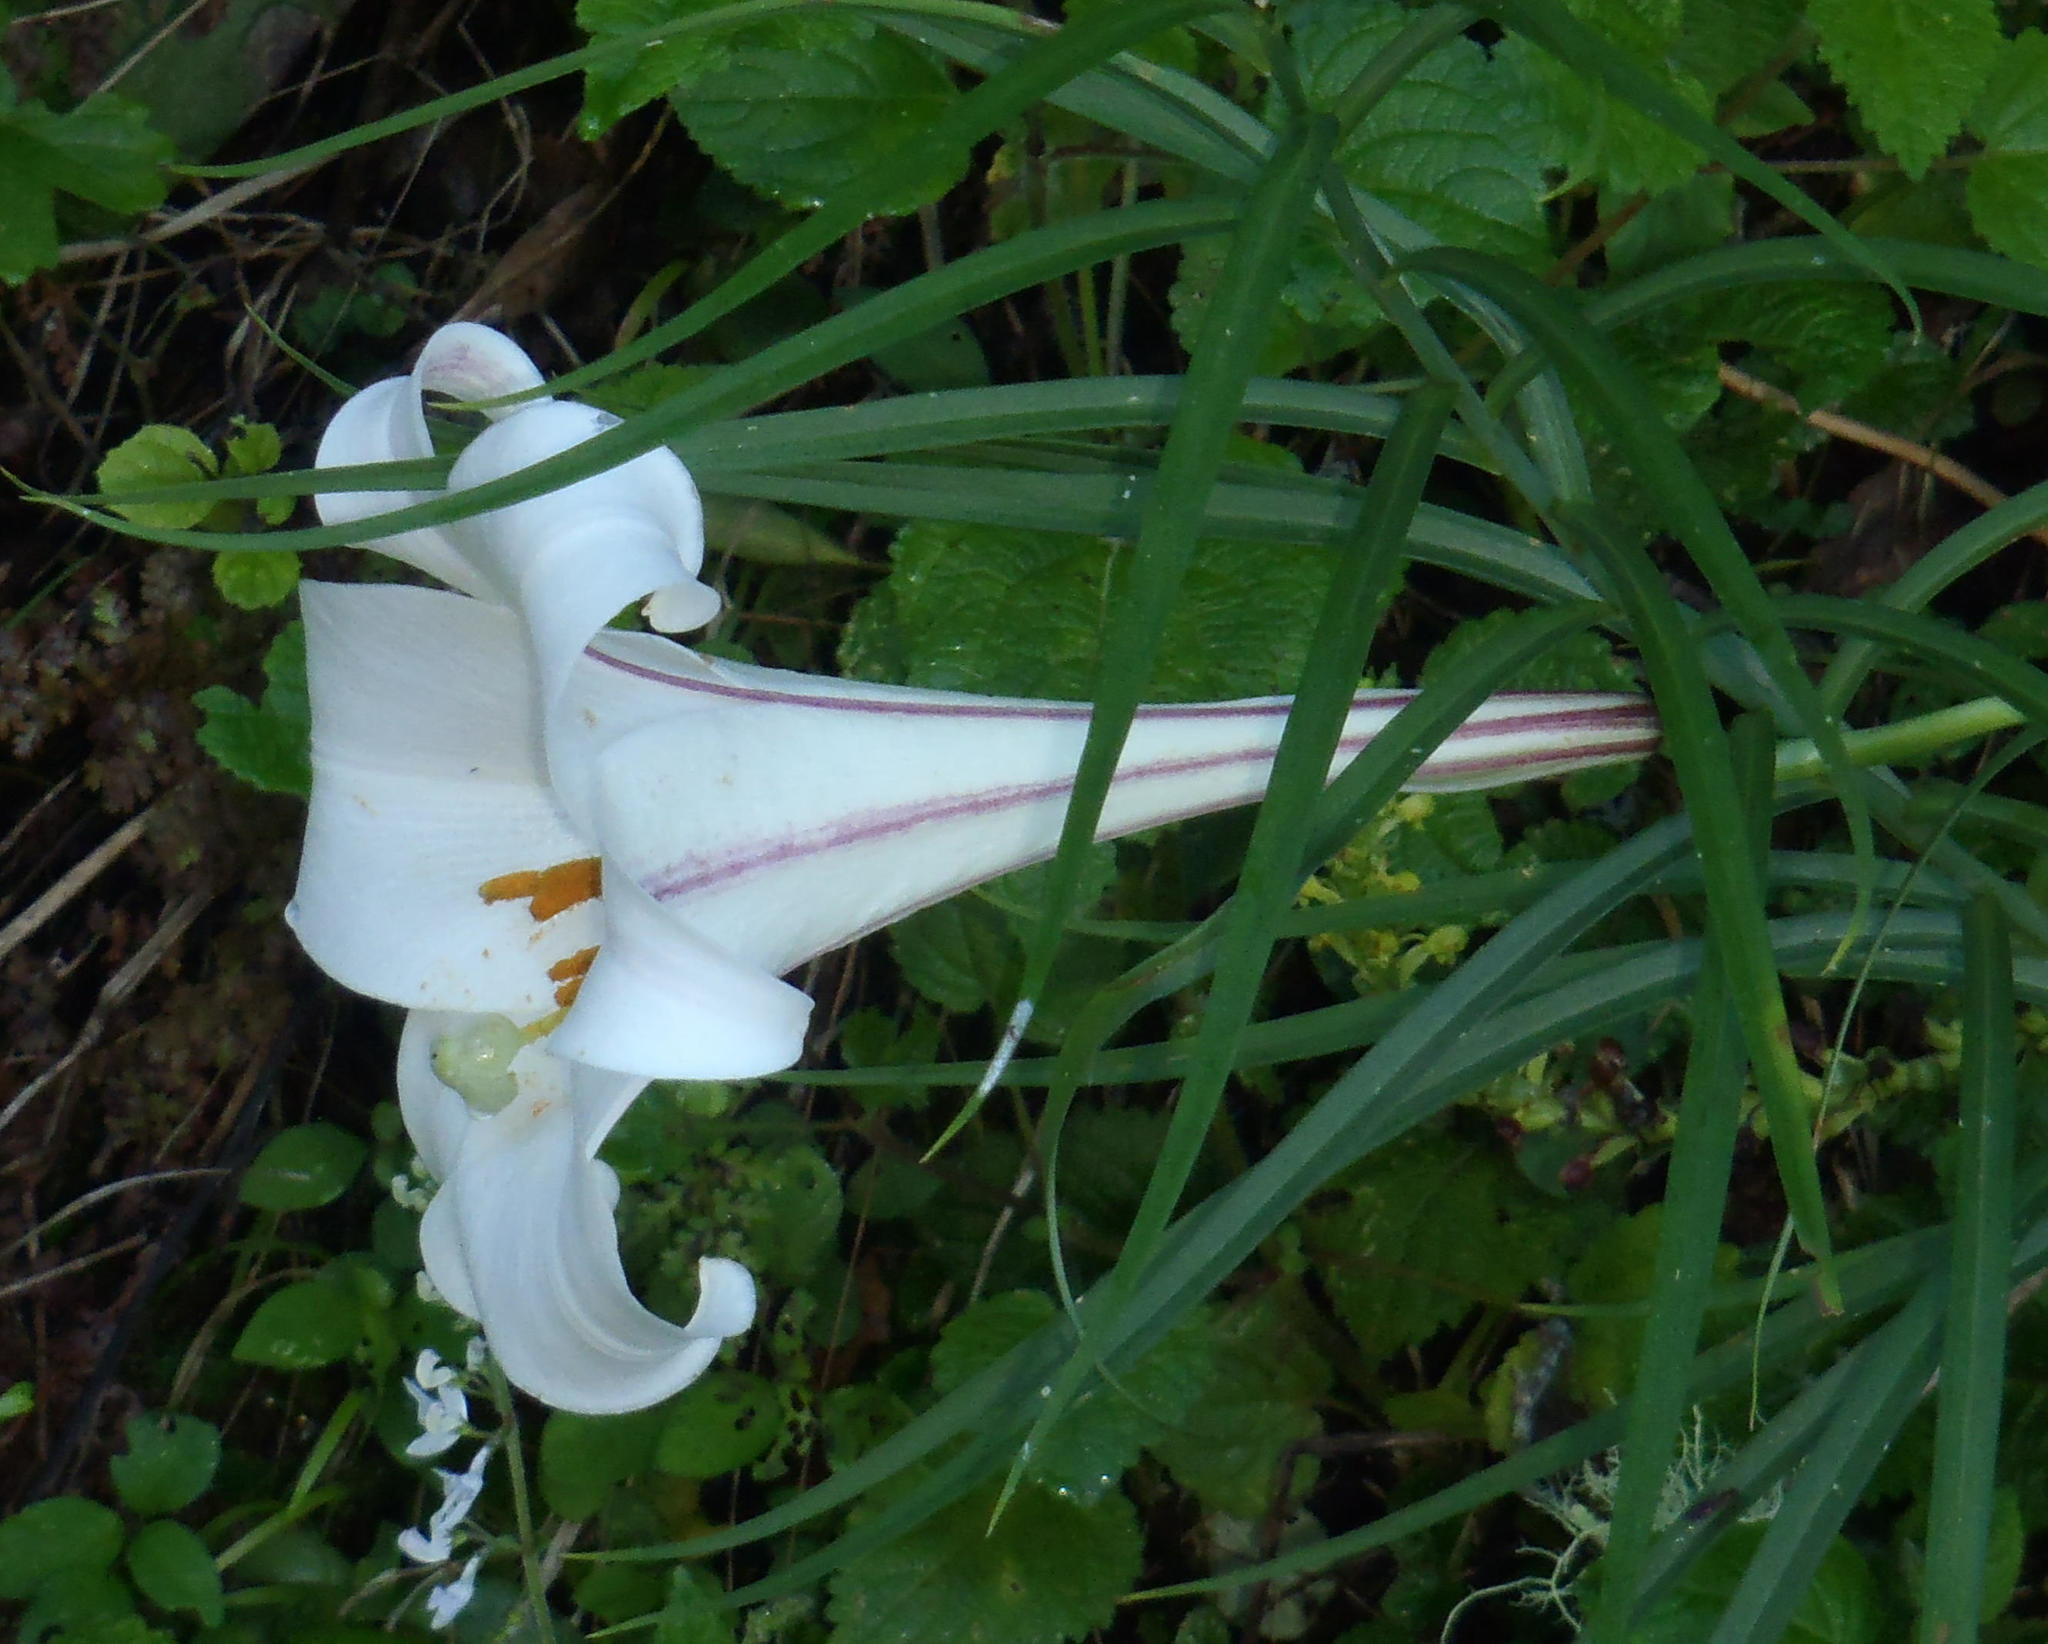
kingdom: Plantae
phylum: Tracheophyta
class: Liliopsida
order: Liliales
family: Liliaceae
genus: Lilium
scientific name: Lilium formosanum
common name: Formosa lily
